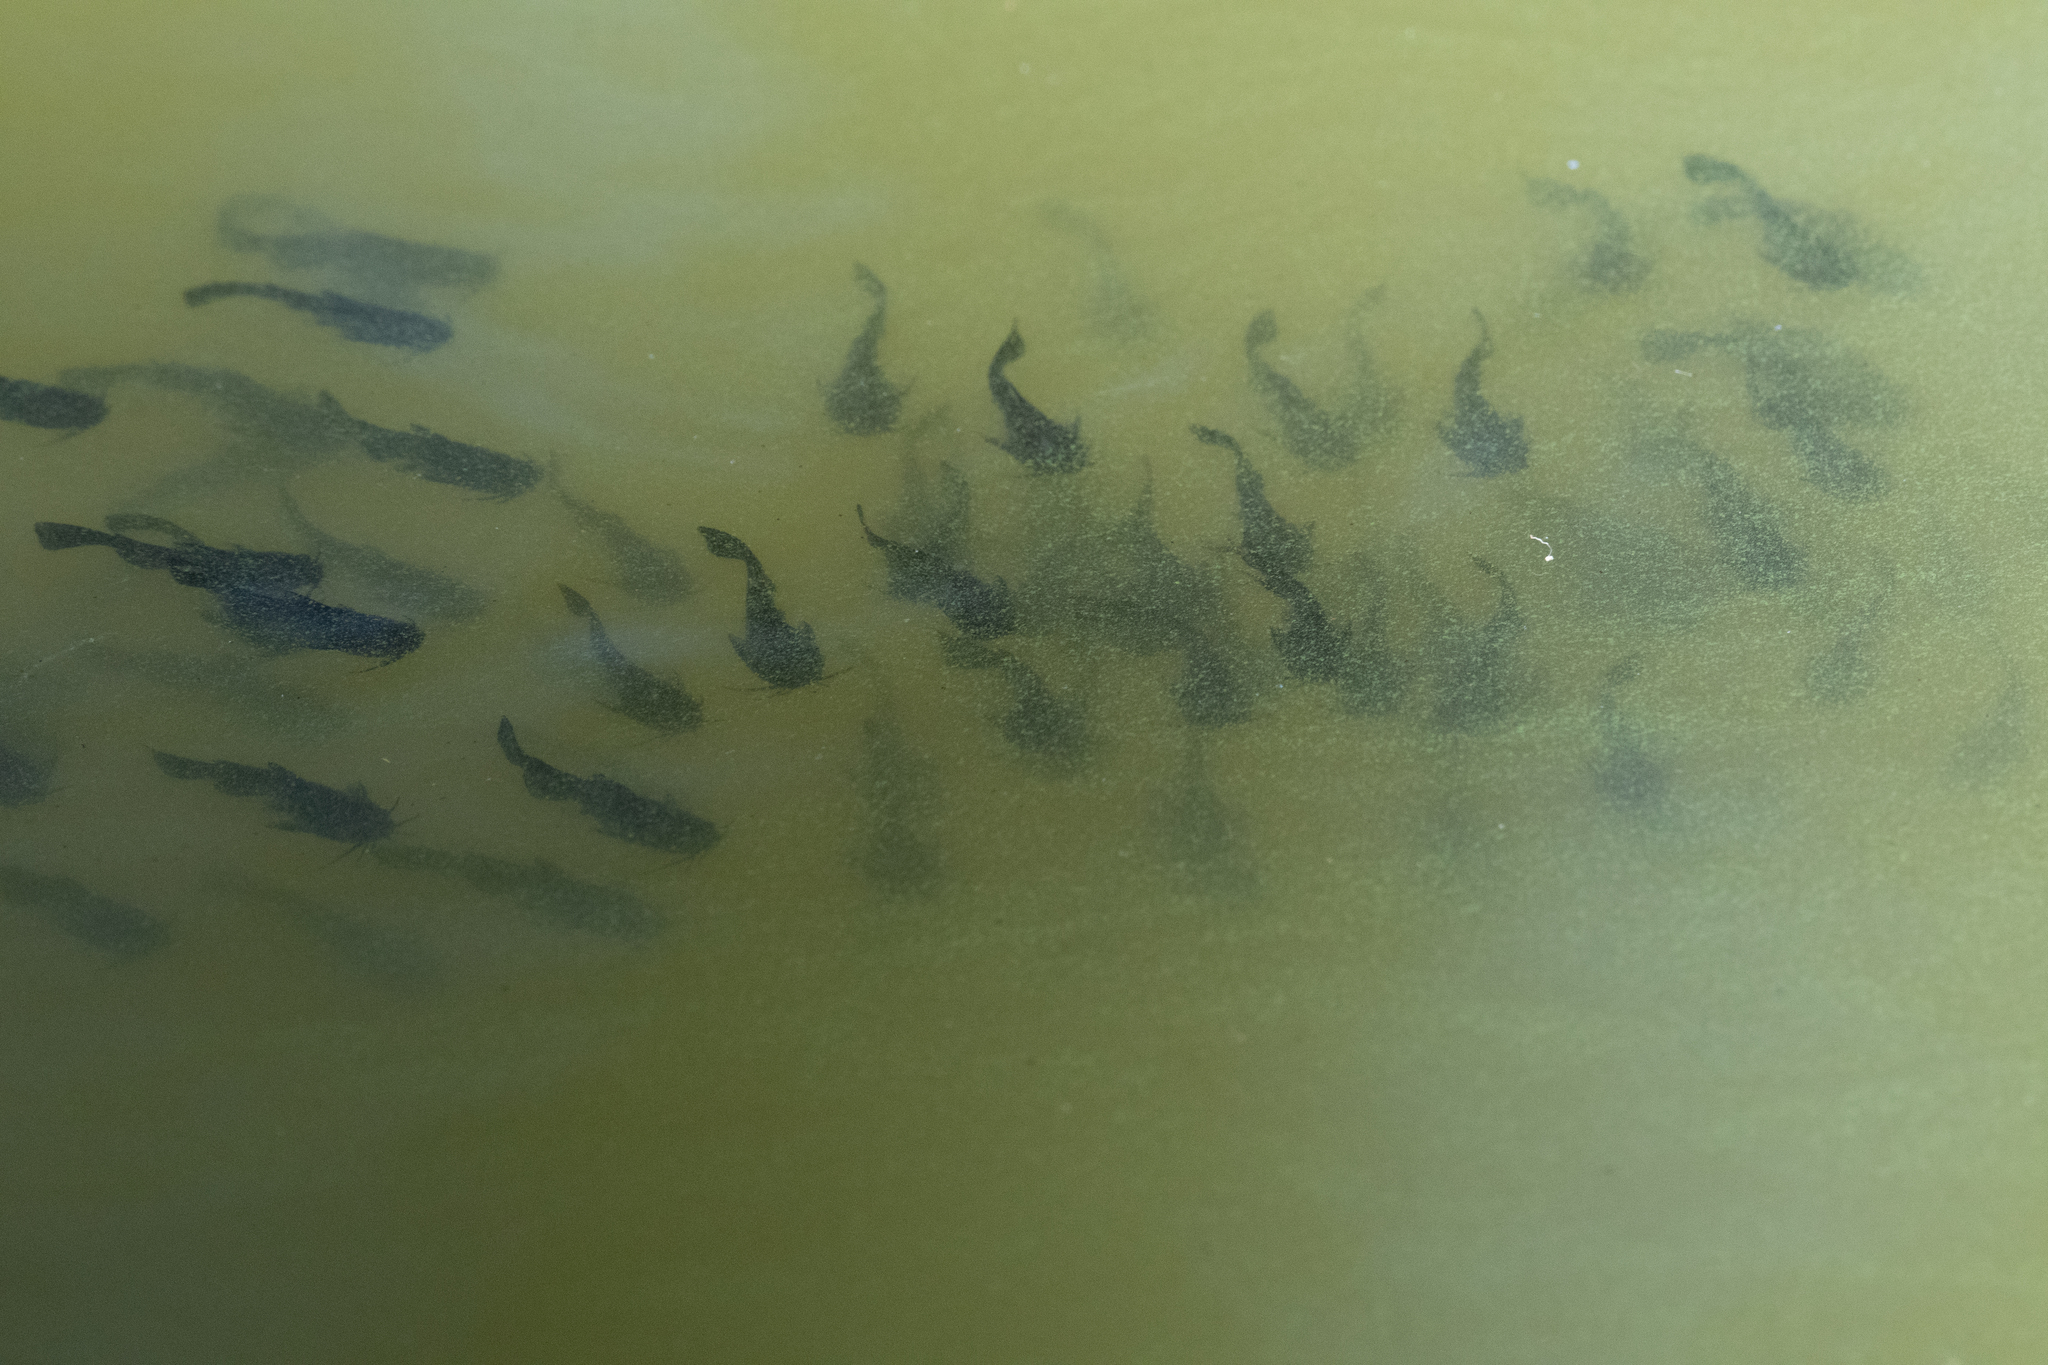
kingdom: Animalia
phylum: Chordata
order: Siluriformes
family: Ictaluridae
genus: Ameiurus
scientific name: Ameiurus melas
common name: Black bullhead
